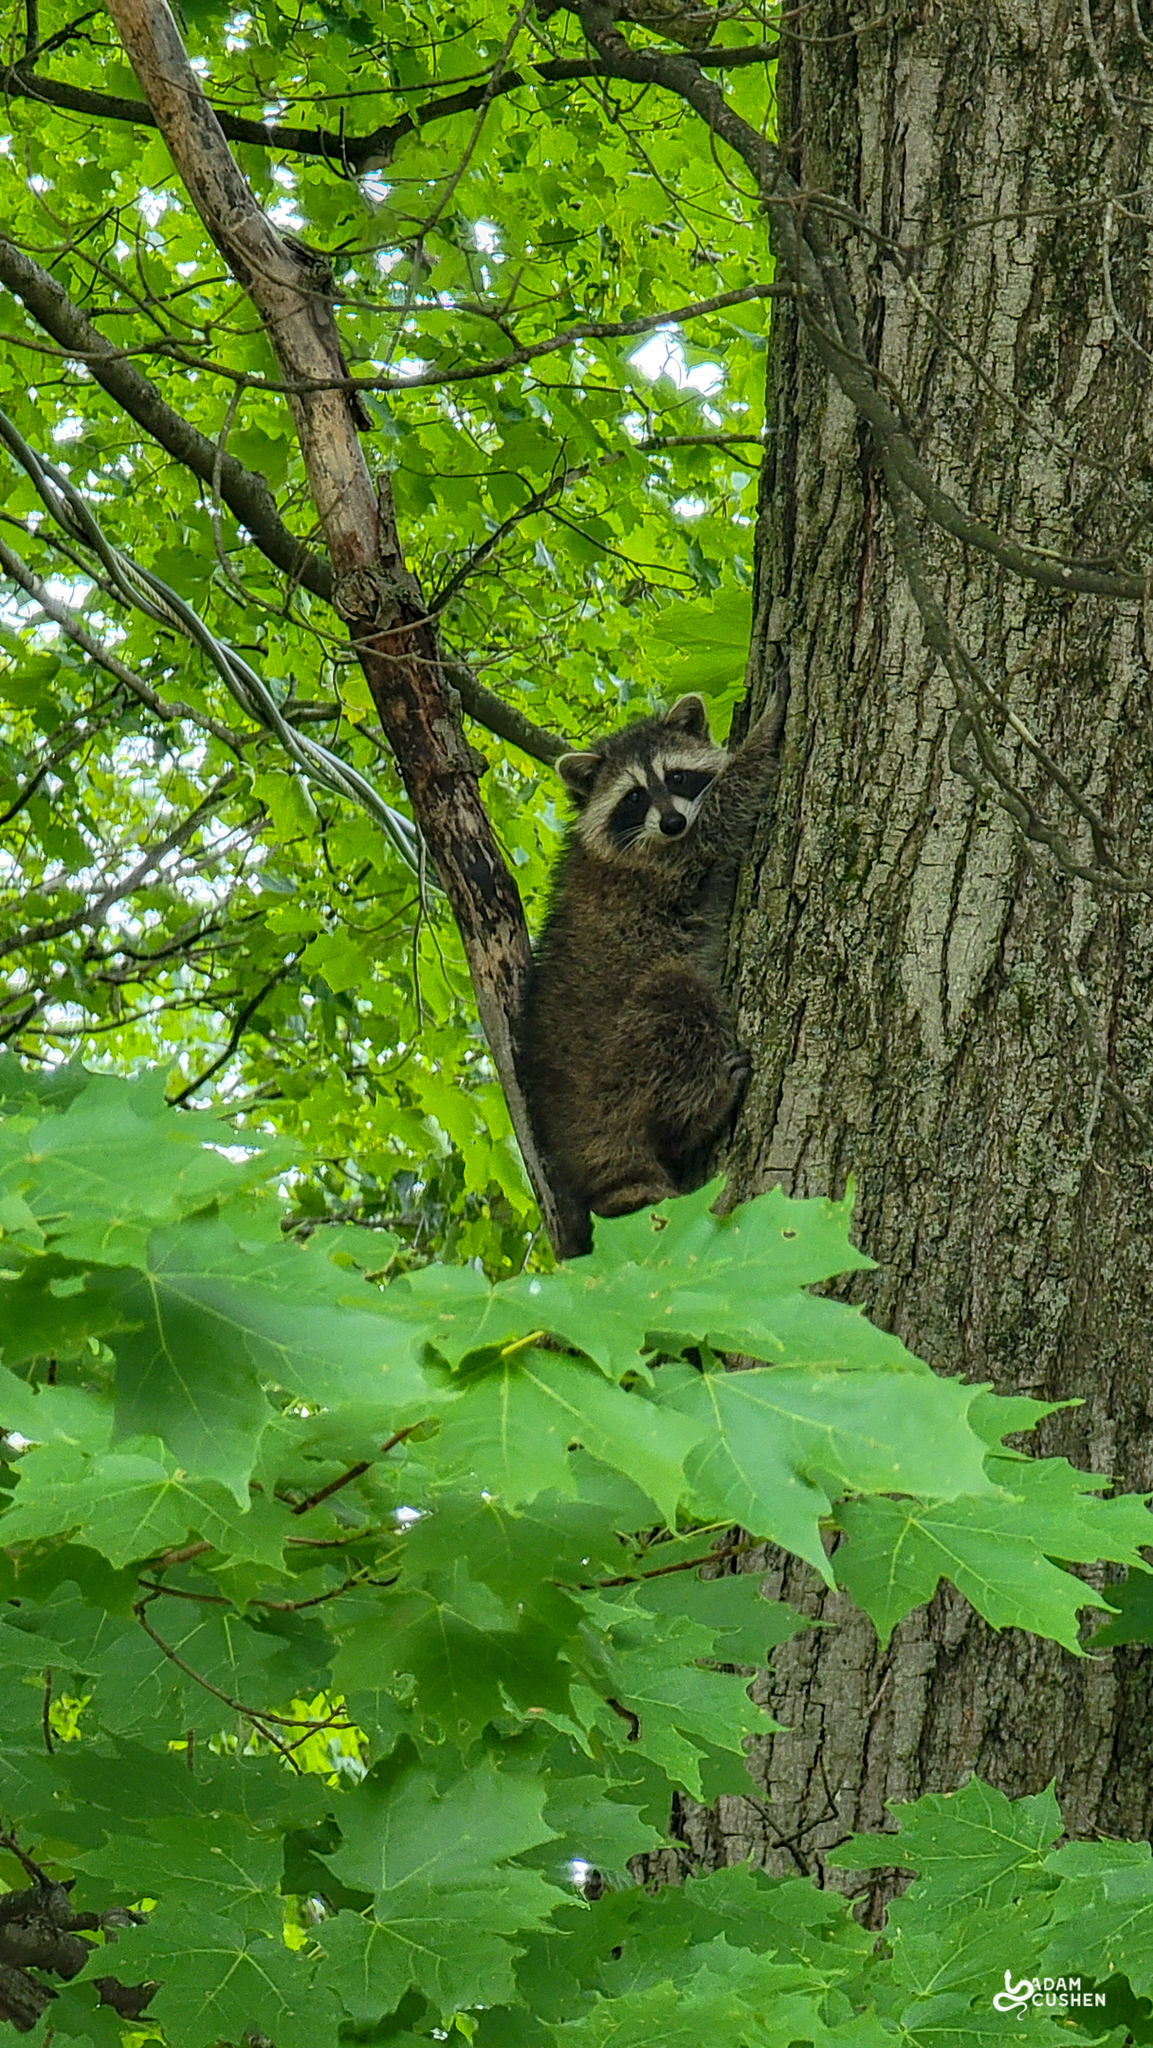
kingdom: Animalia
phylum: Chordata
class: Mammalia
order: Carnivora
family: Procyonidae
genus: Procyon
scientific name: Procyon lotor
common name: Raccoon
